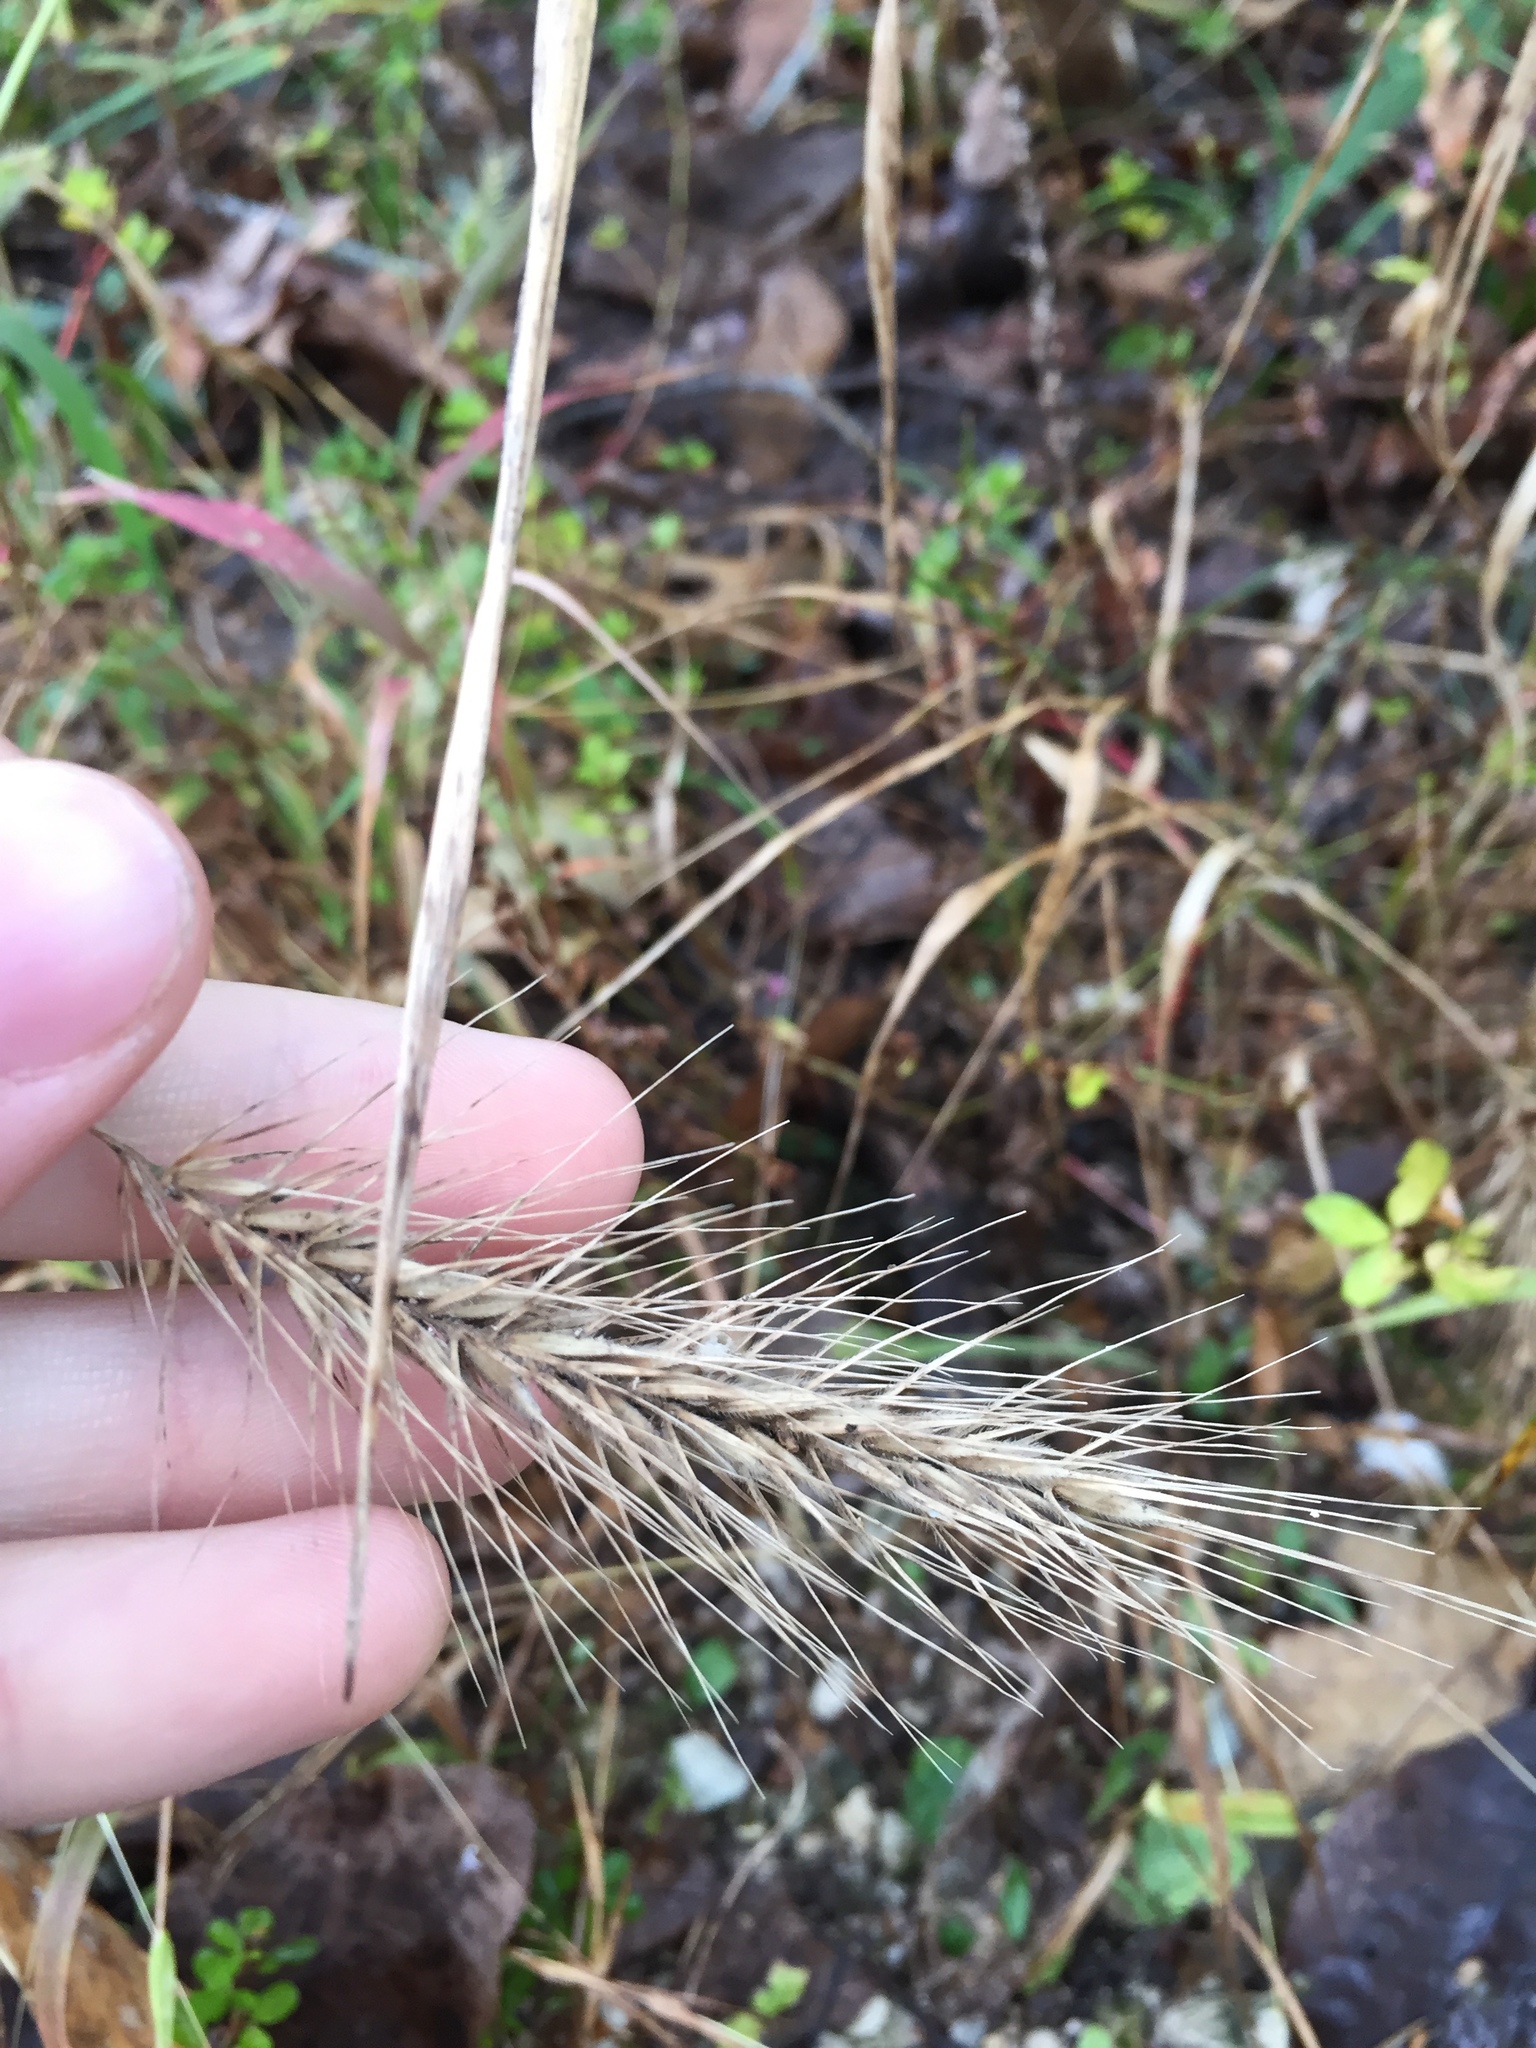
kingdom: Plantae
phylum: Tracheophyta
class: Liliopsida
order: Poales
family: Poaceae
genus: Elymus
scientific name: Elymus villosus
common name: Downy wild rye
